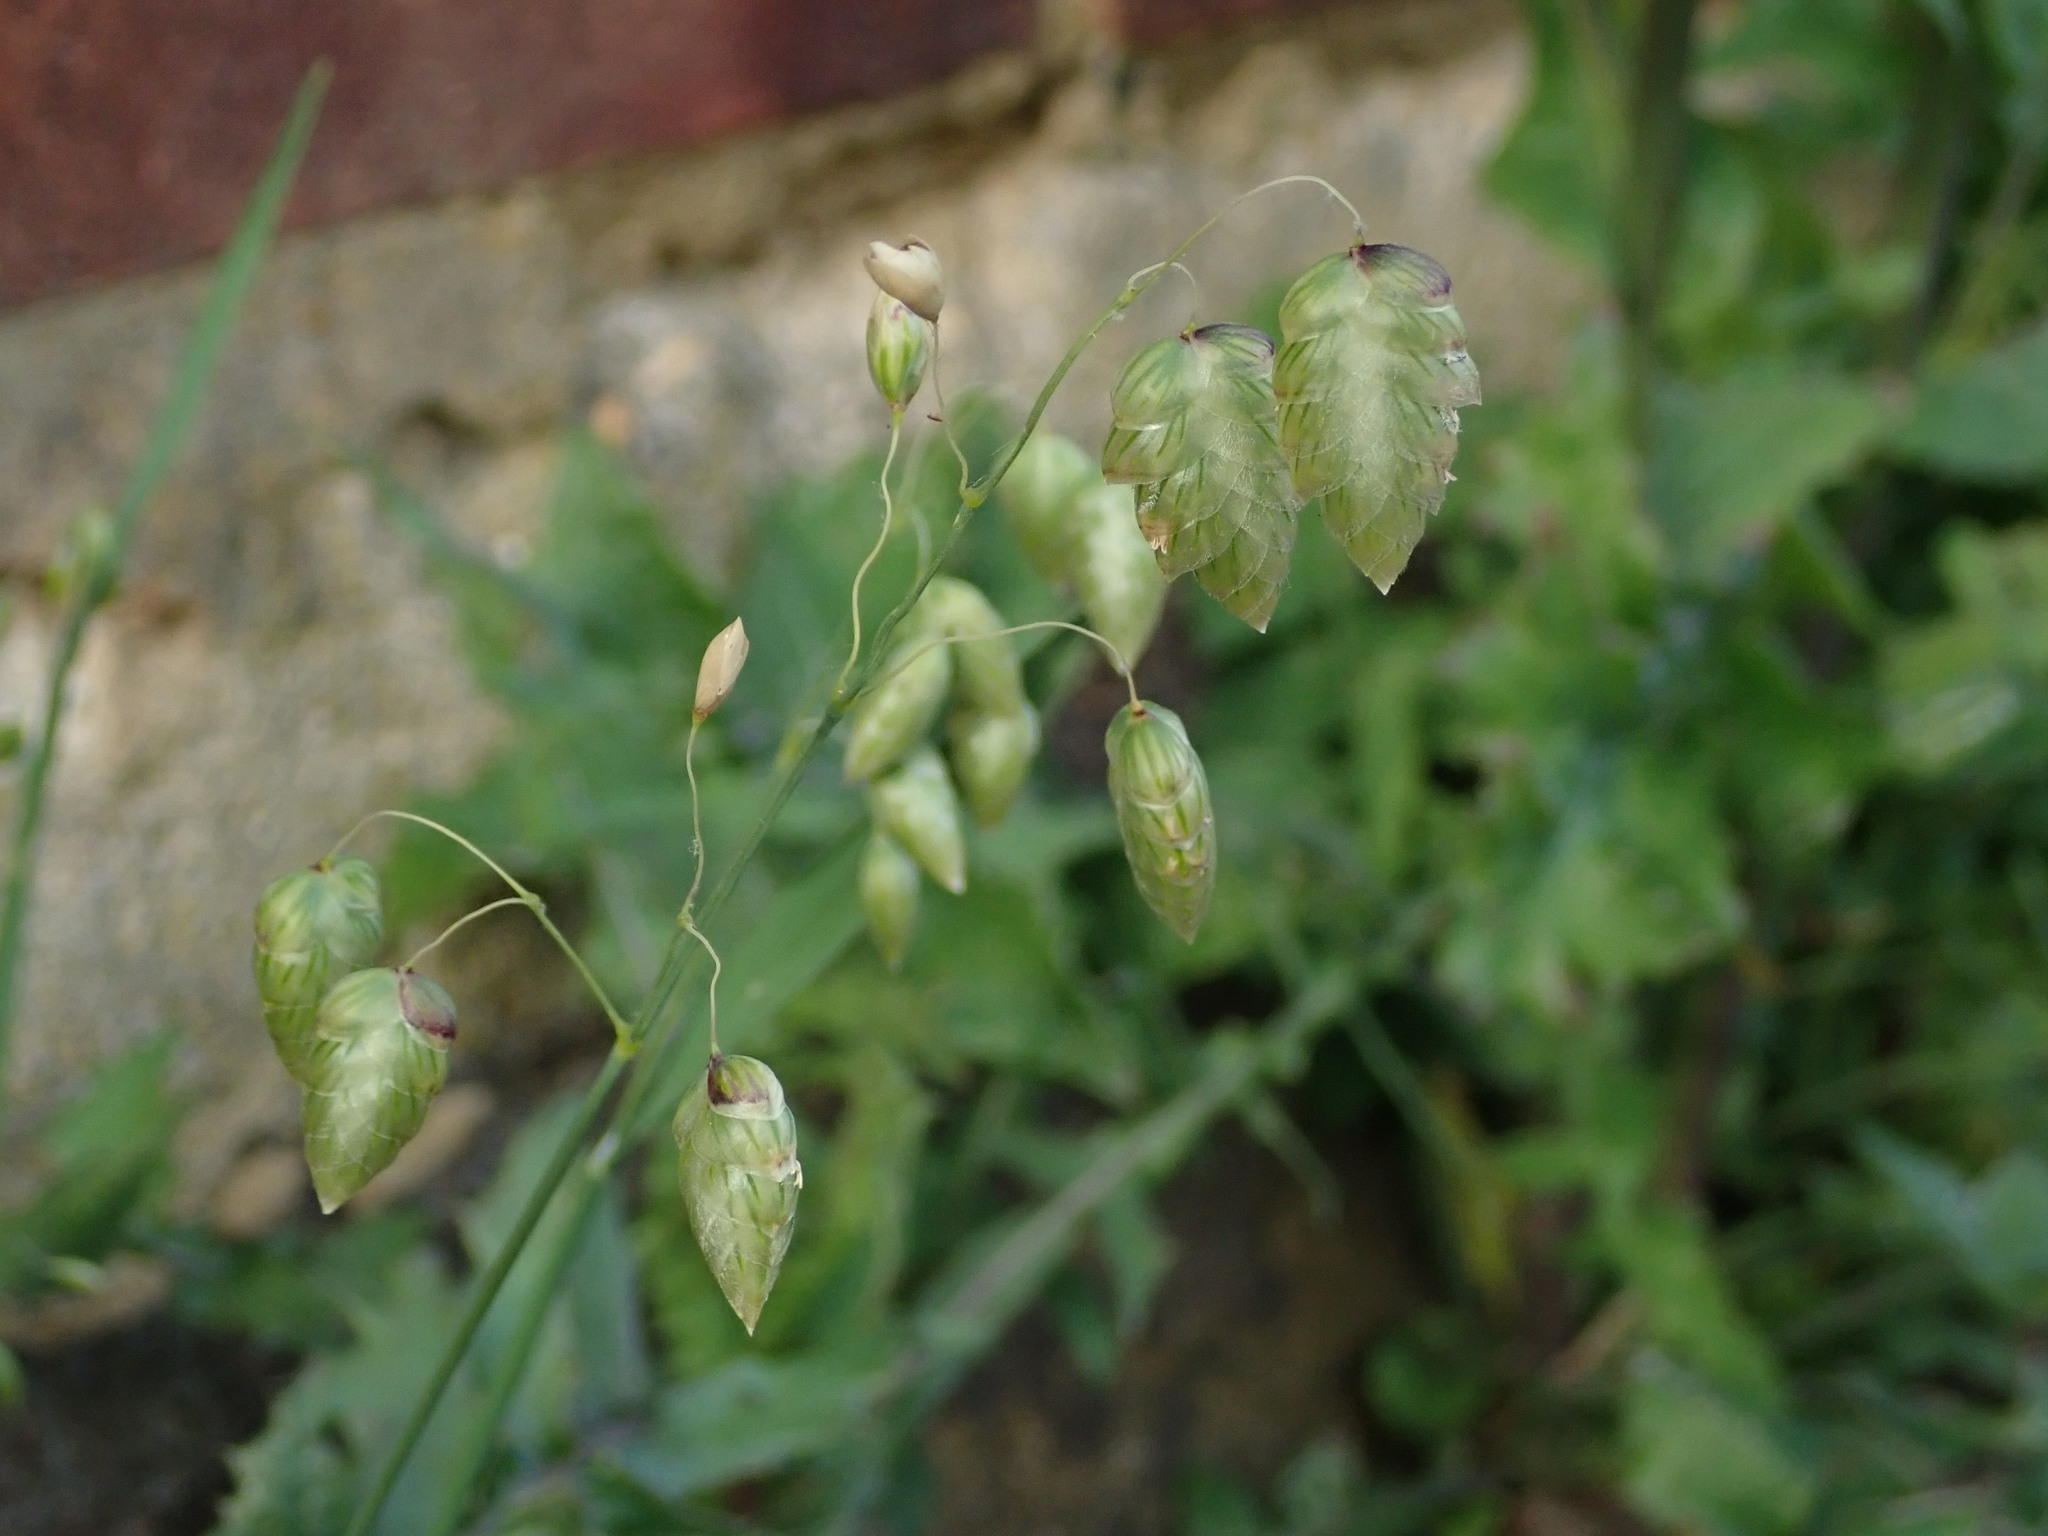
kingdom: Plantae
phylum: Tracheophyta
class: Liliopsida
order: Poales
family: Poaceae
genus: Briza
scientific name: Briza maxima
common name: Big quakinggrass
